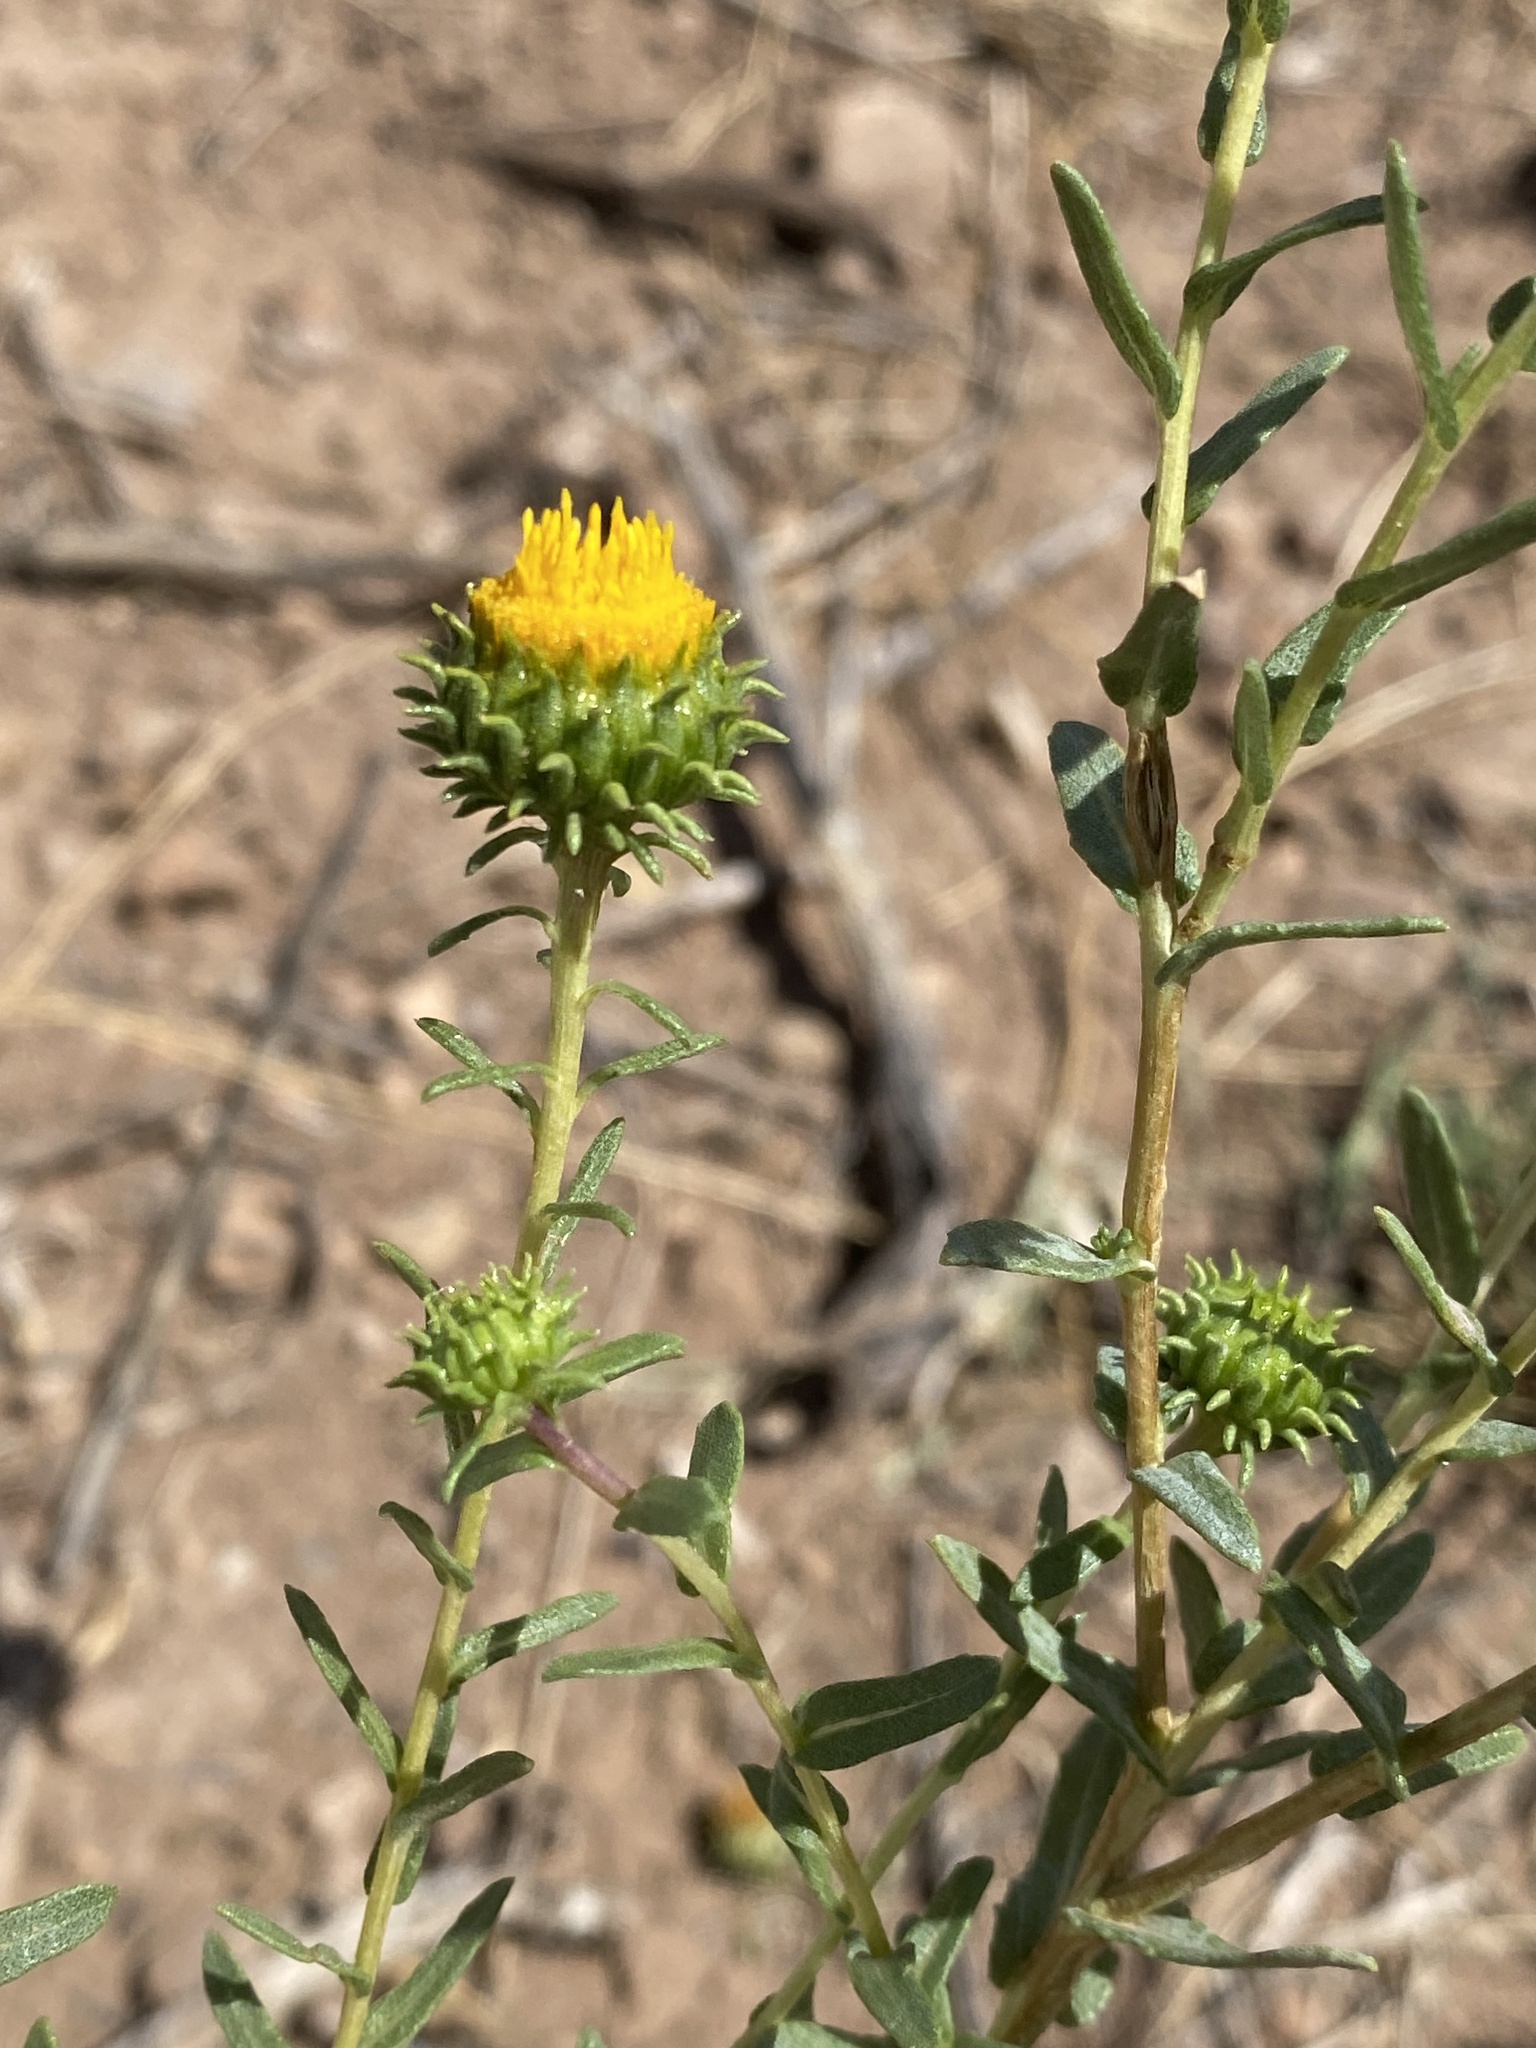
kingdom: Plantae
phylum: Tracheophyta
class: Magnoliopsida
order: Asterales
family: Asteraceae
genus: Grindelia
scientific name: Grindelia squarrosa
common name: Curly-cup gumweed
